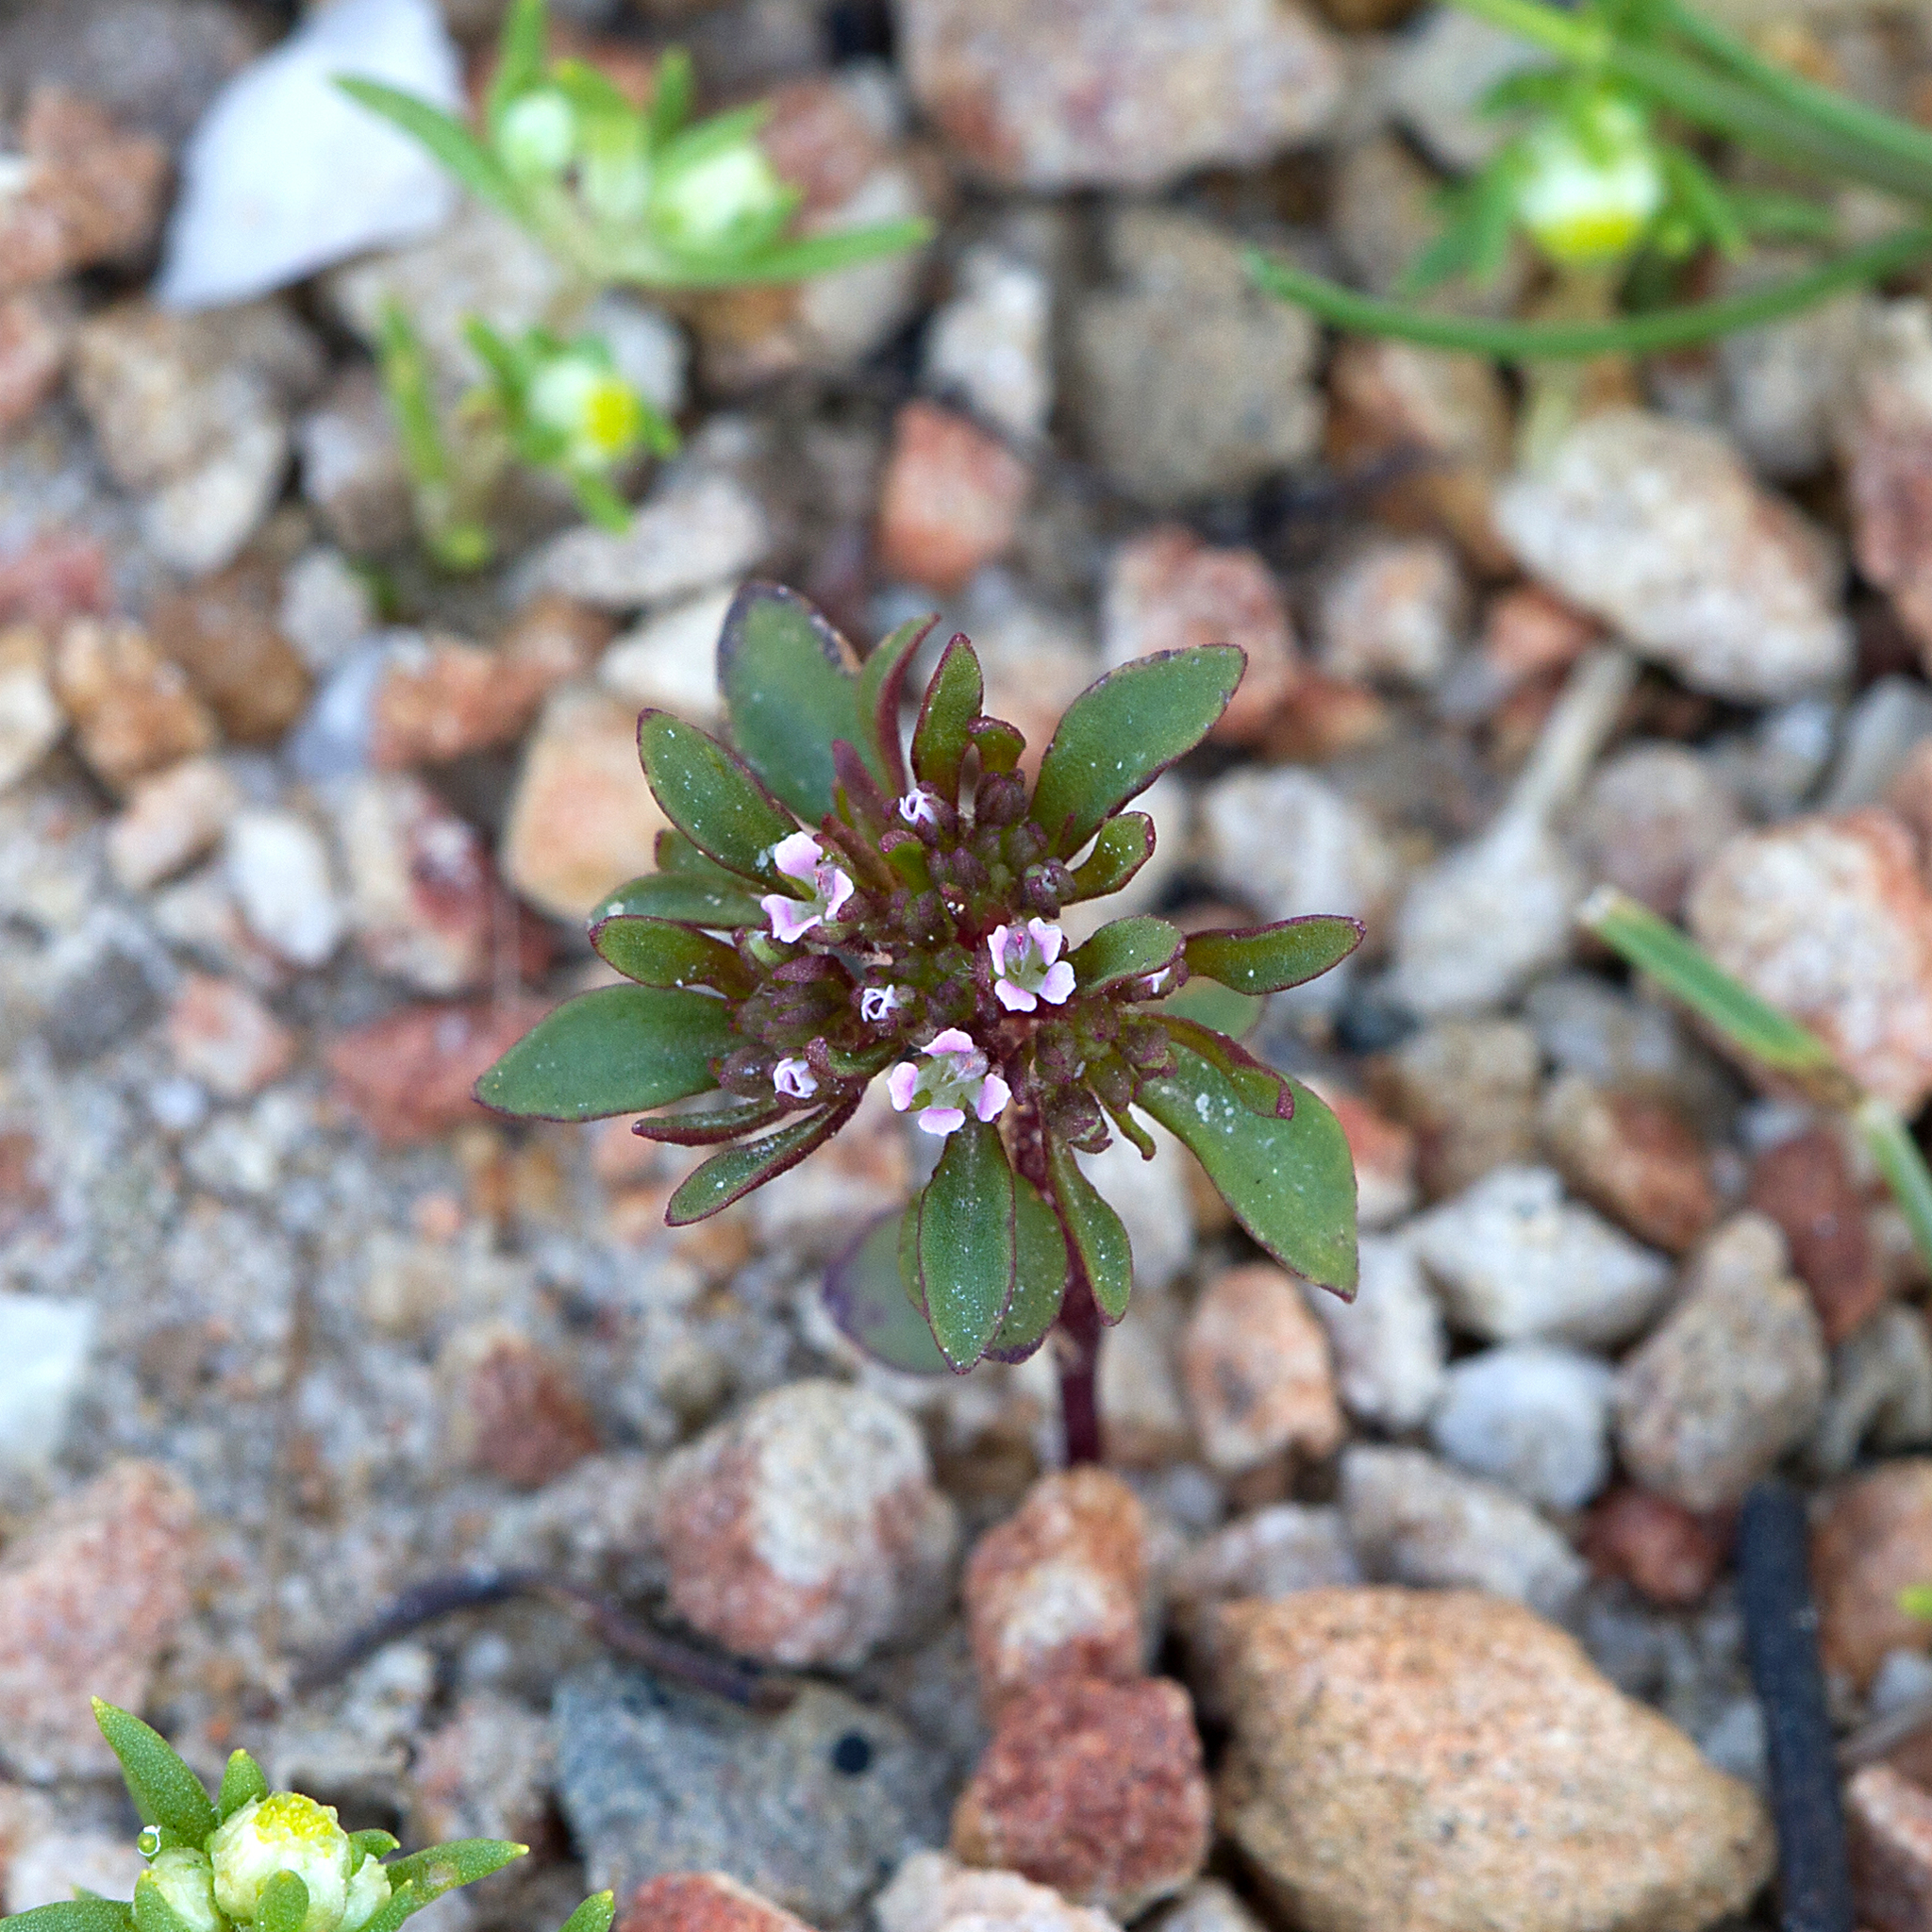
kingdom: Plantae
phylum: Tracheophyta
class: Magnoliopsida
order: Asterales
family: Stylidiaceae
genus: Levenhookia
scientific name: Levenhookia pusilla
